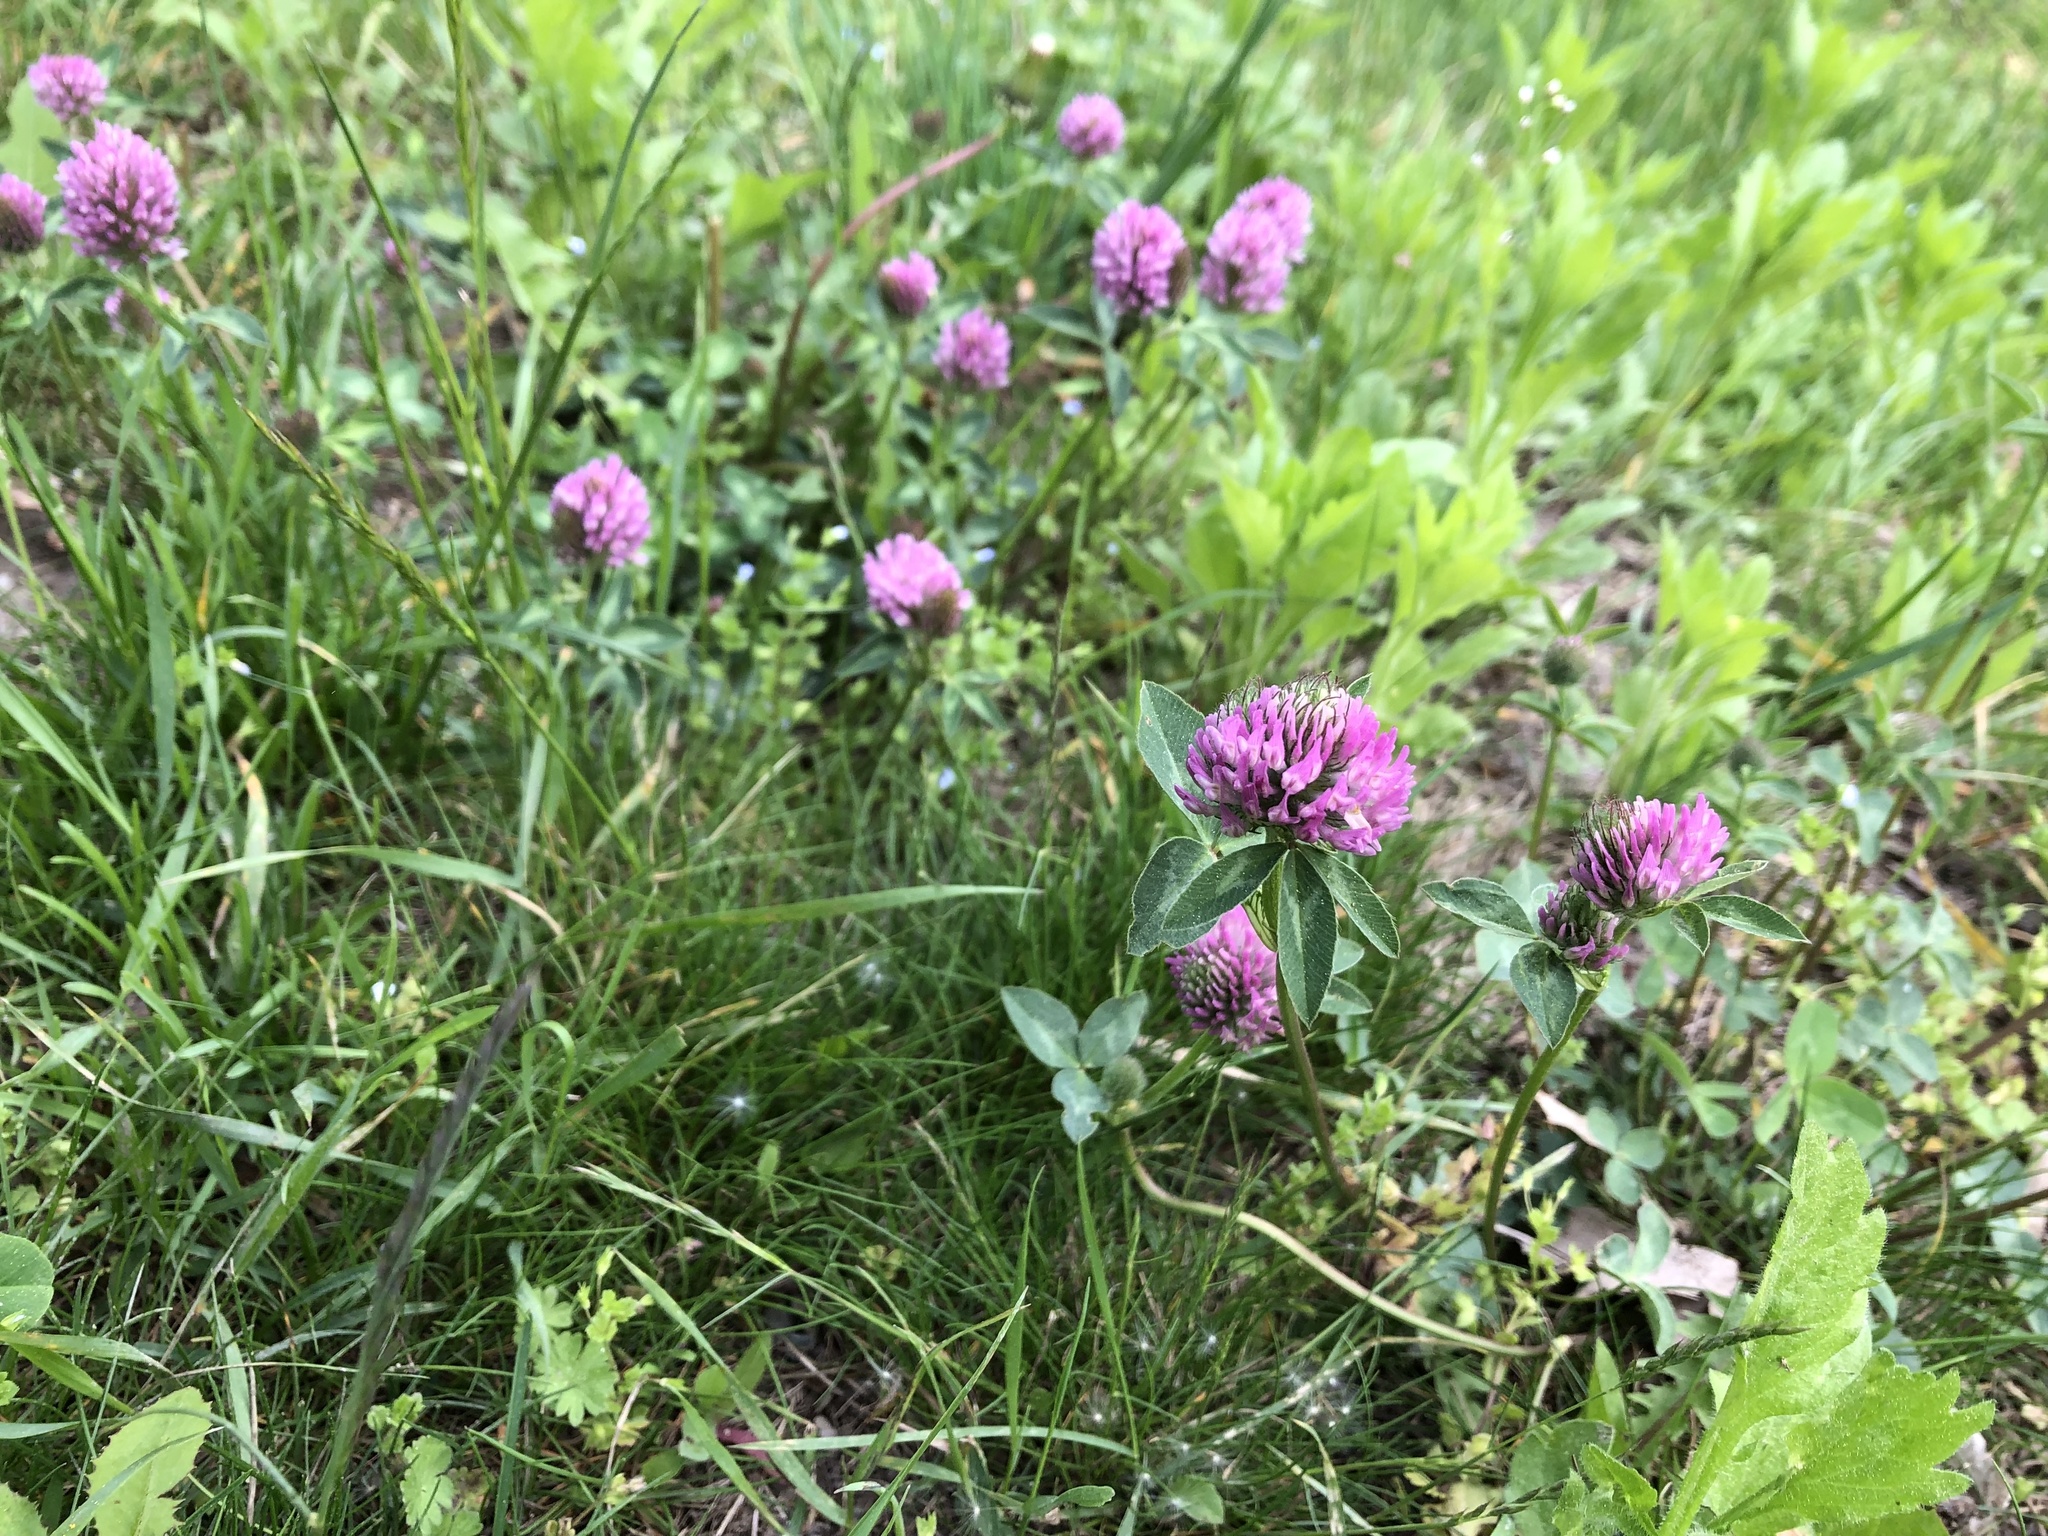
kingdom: Plantae
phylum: Tracheophyta
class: Magnoliopsida
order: Fabales
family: Fabaceae
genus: Trifolium
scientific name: Trifolium pratense
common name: Red clover
